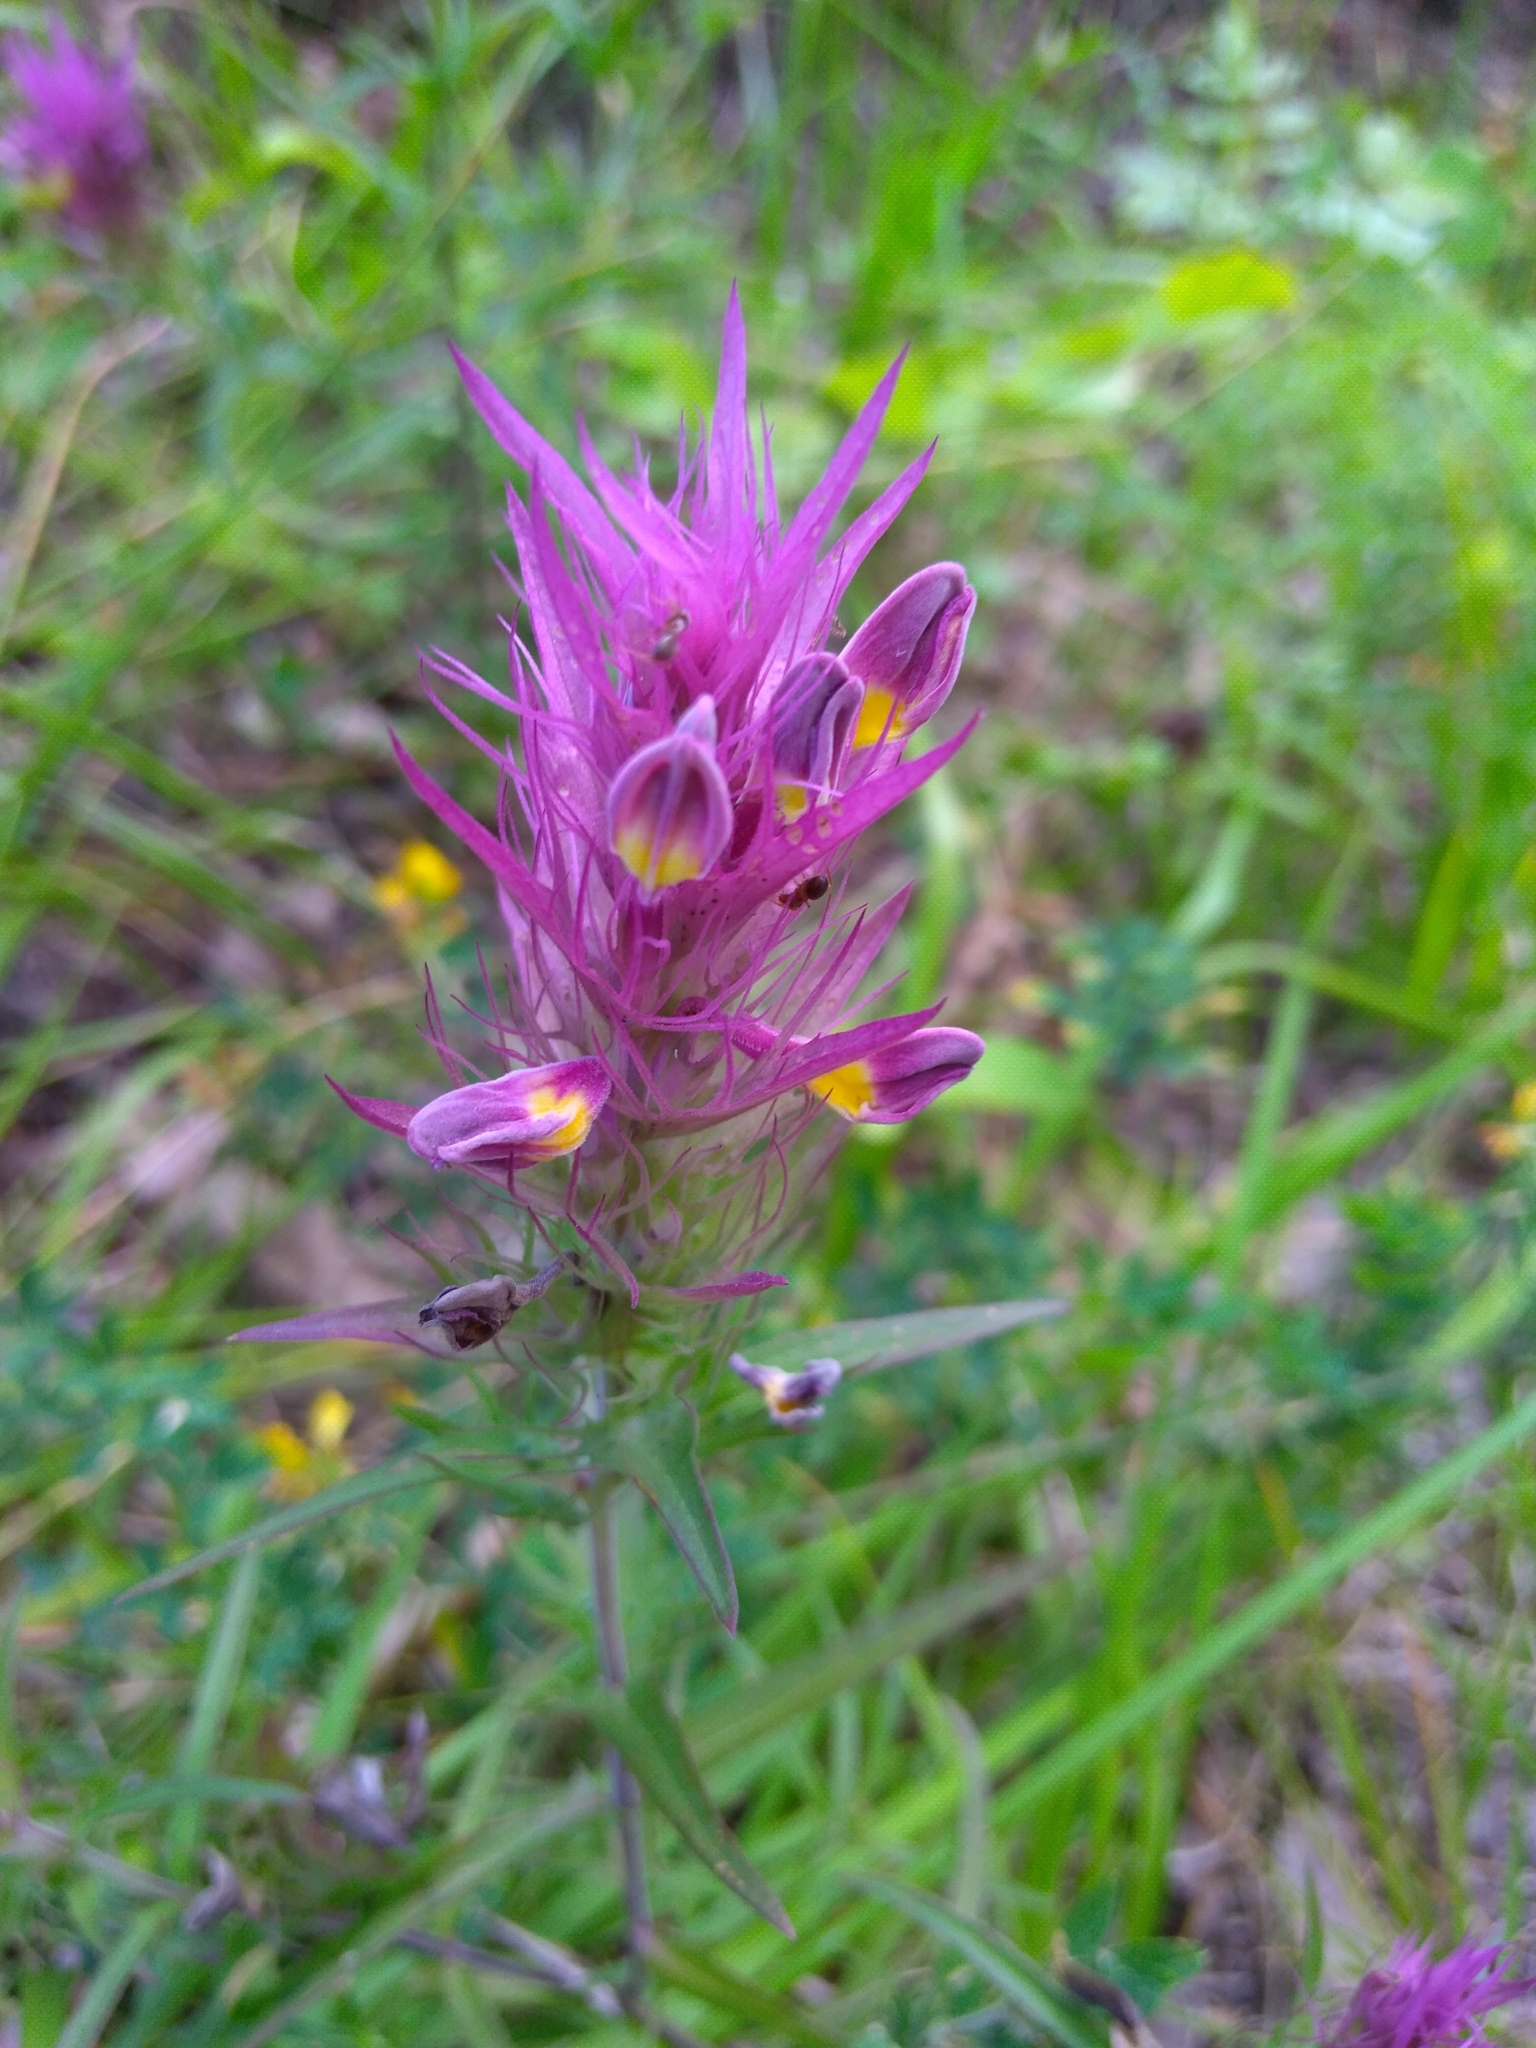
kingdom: Plantae
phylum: Tracheophyta
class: Magnoliopsida
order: Lamiales
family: Orobanchaceae
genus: Melampyrum
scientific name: Melampyrum arvense
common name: Field cow-wheat
